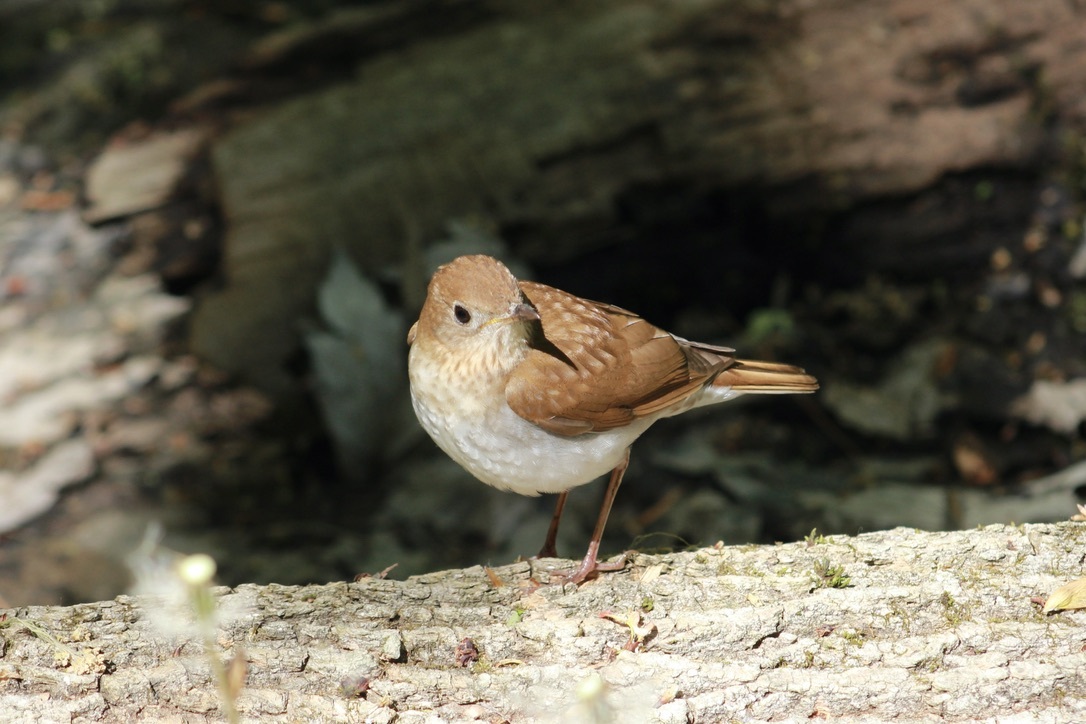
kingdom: Animalia
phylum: Chordata
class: Aves
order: Passeriformes
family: Turdidae
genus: Catharus
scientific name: Catharus fuscescens
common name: Veery
